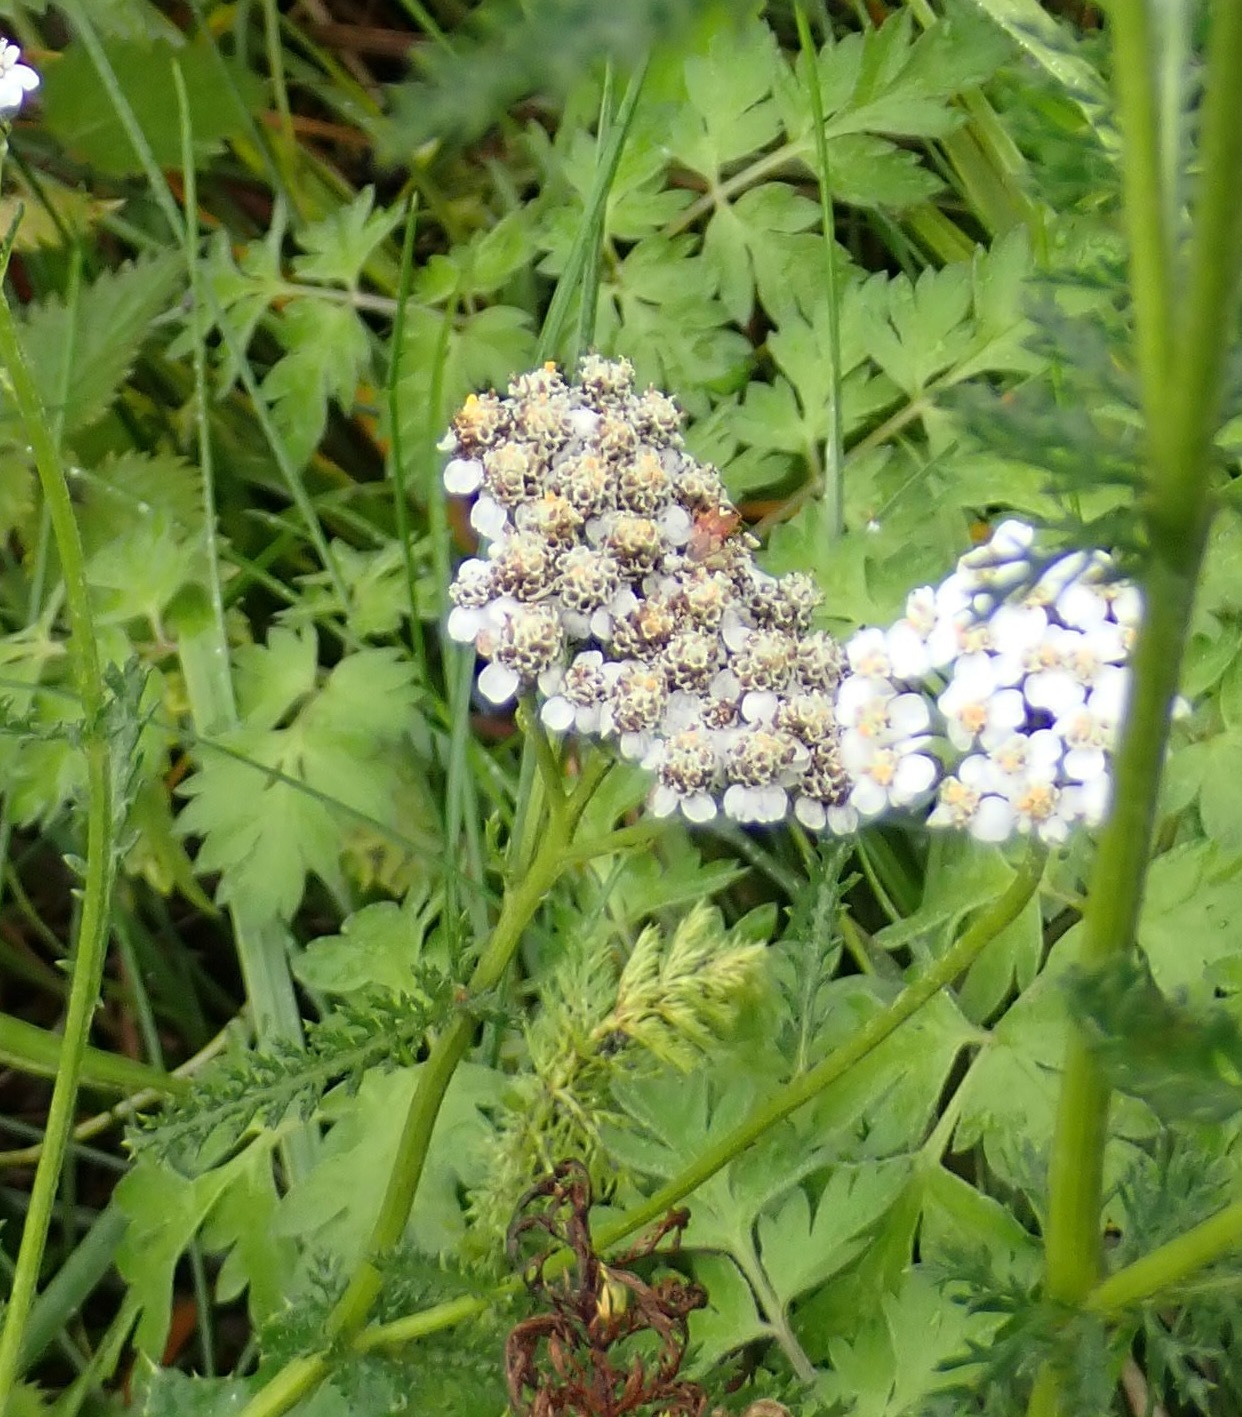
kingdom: Plantae
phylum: Tracheophyta
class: Magnoliopsida
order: Asterales
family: Asteraceae
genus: Achillea
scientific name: Achillea millefolium
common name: Yarrow
